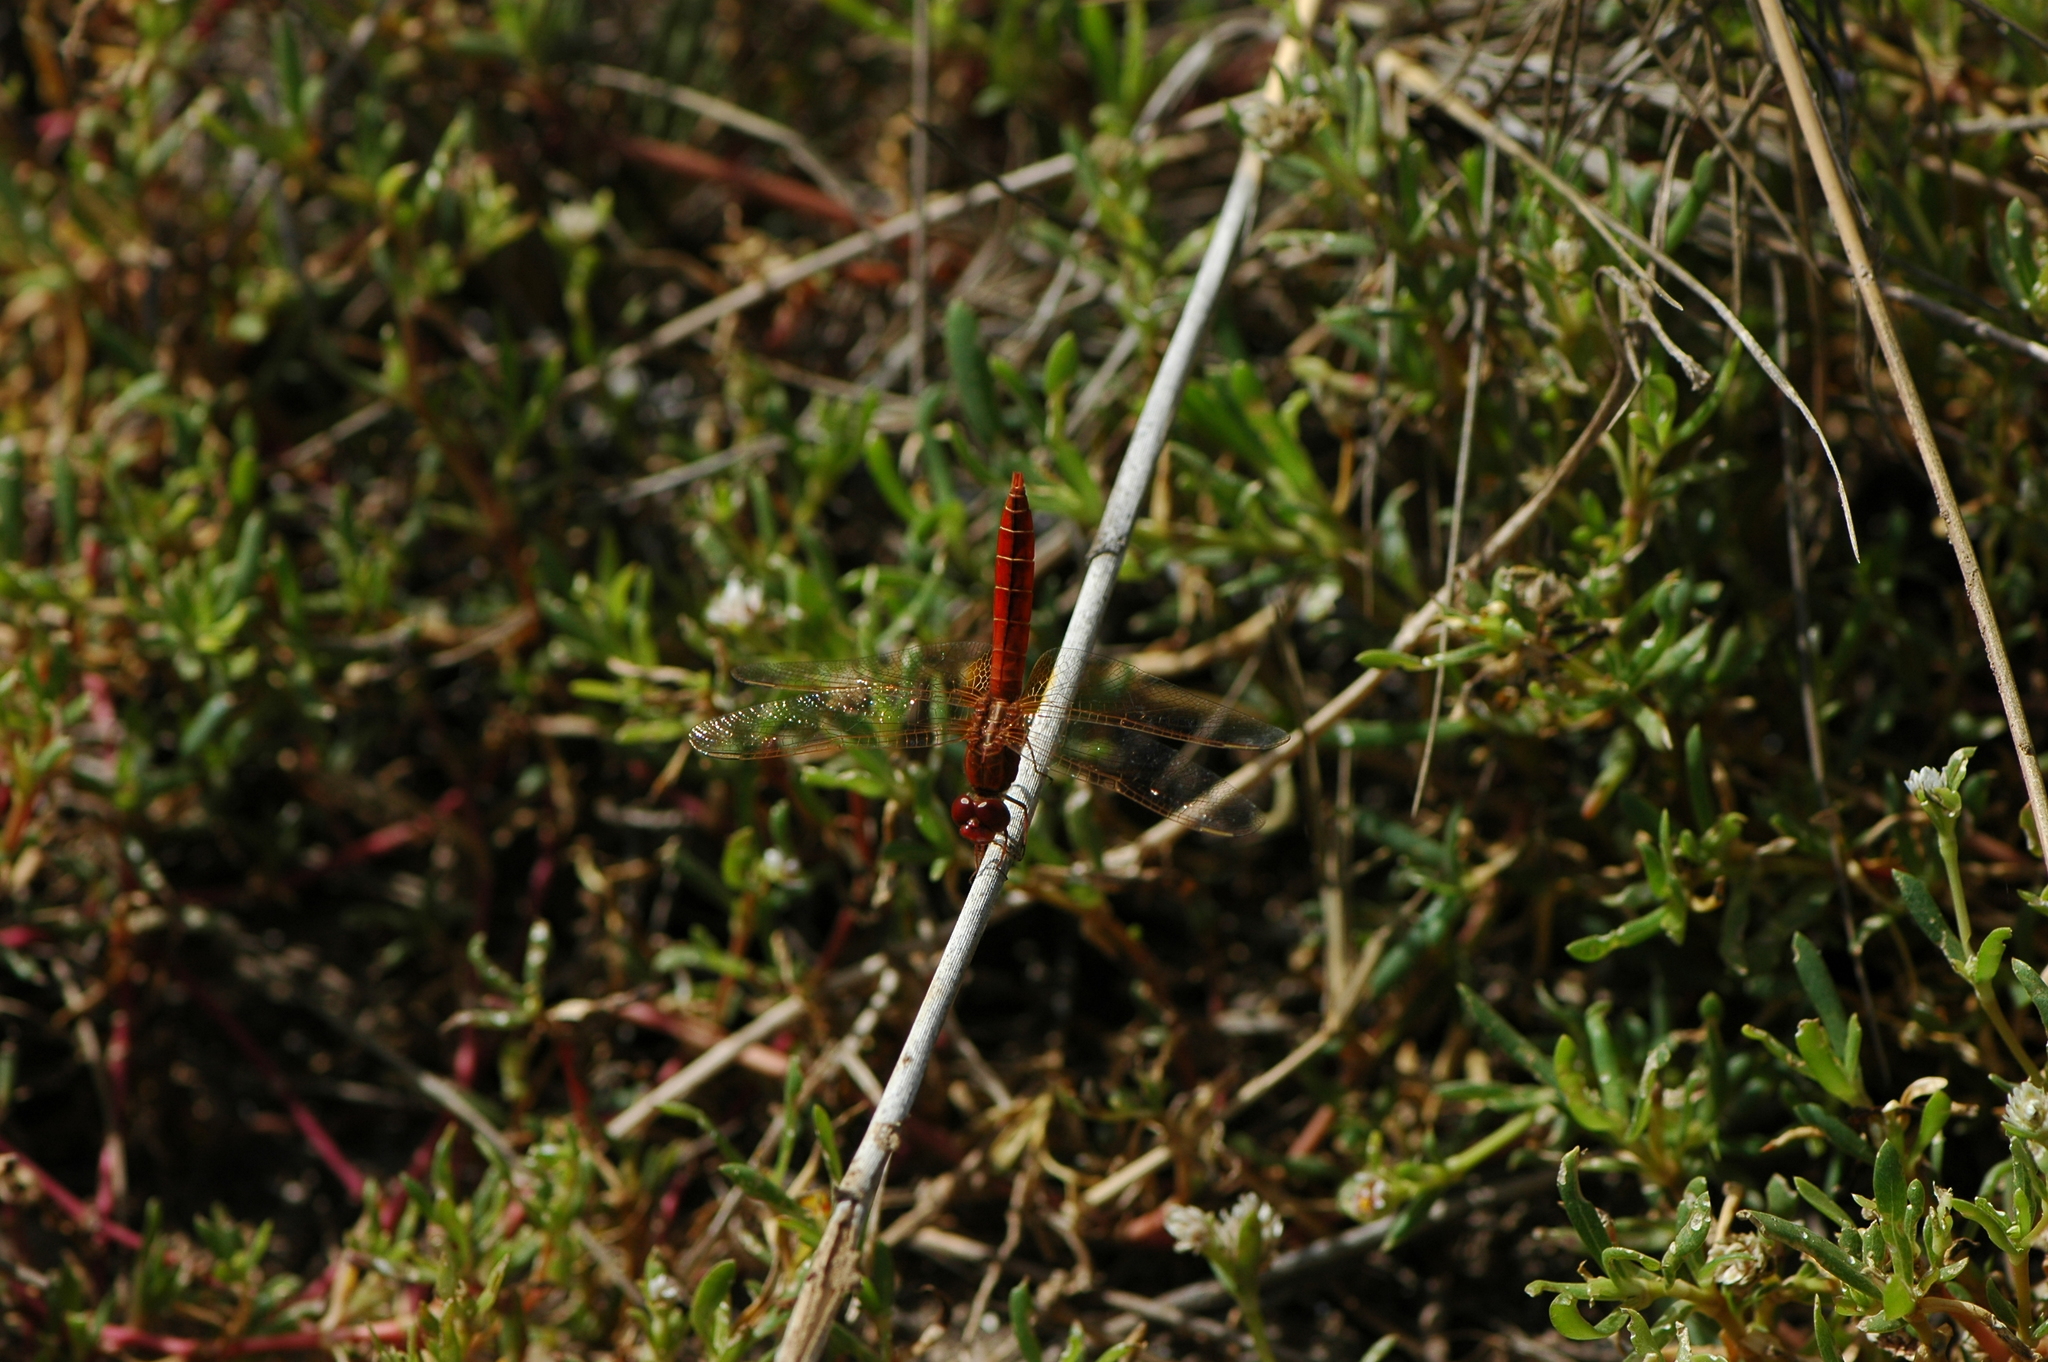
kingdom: Animalia
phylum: Arthropoda
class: Insecta
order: Odonata
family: Libellulidae
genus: Crocothemis
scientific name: Crocothemis erythraea
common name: Scarlet dragonfly
